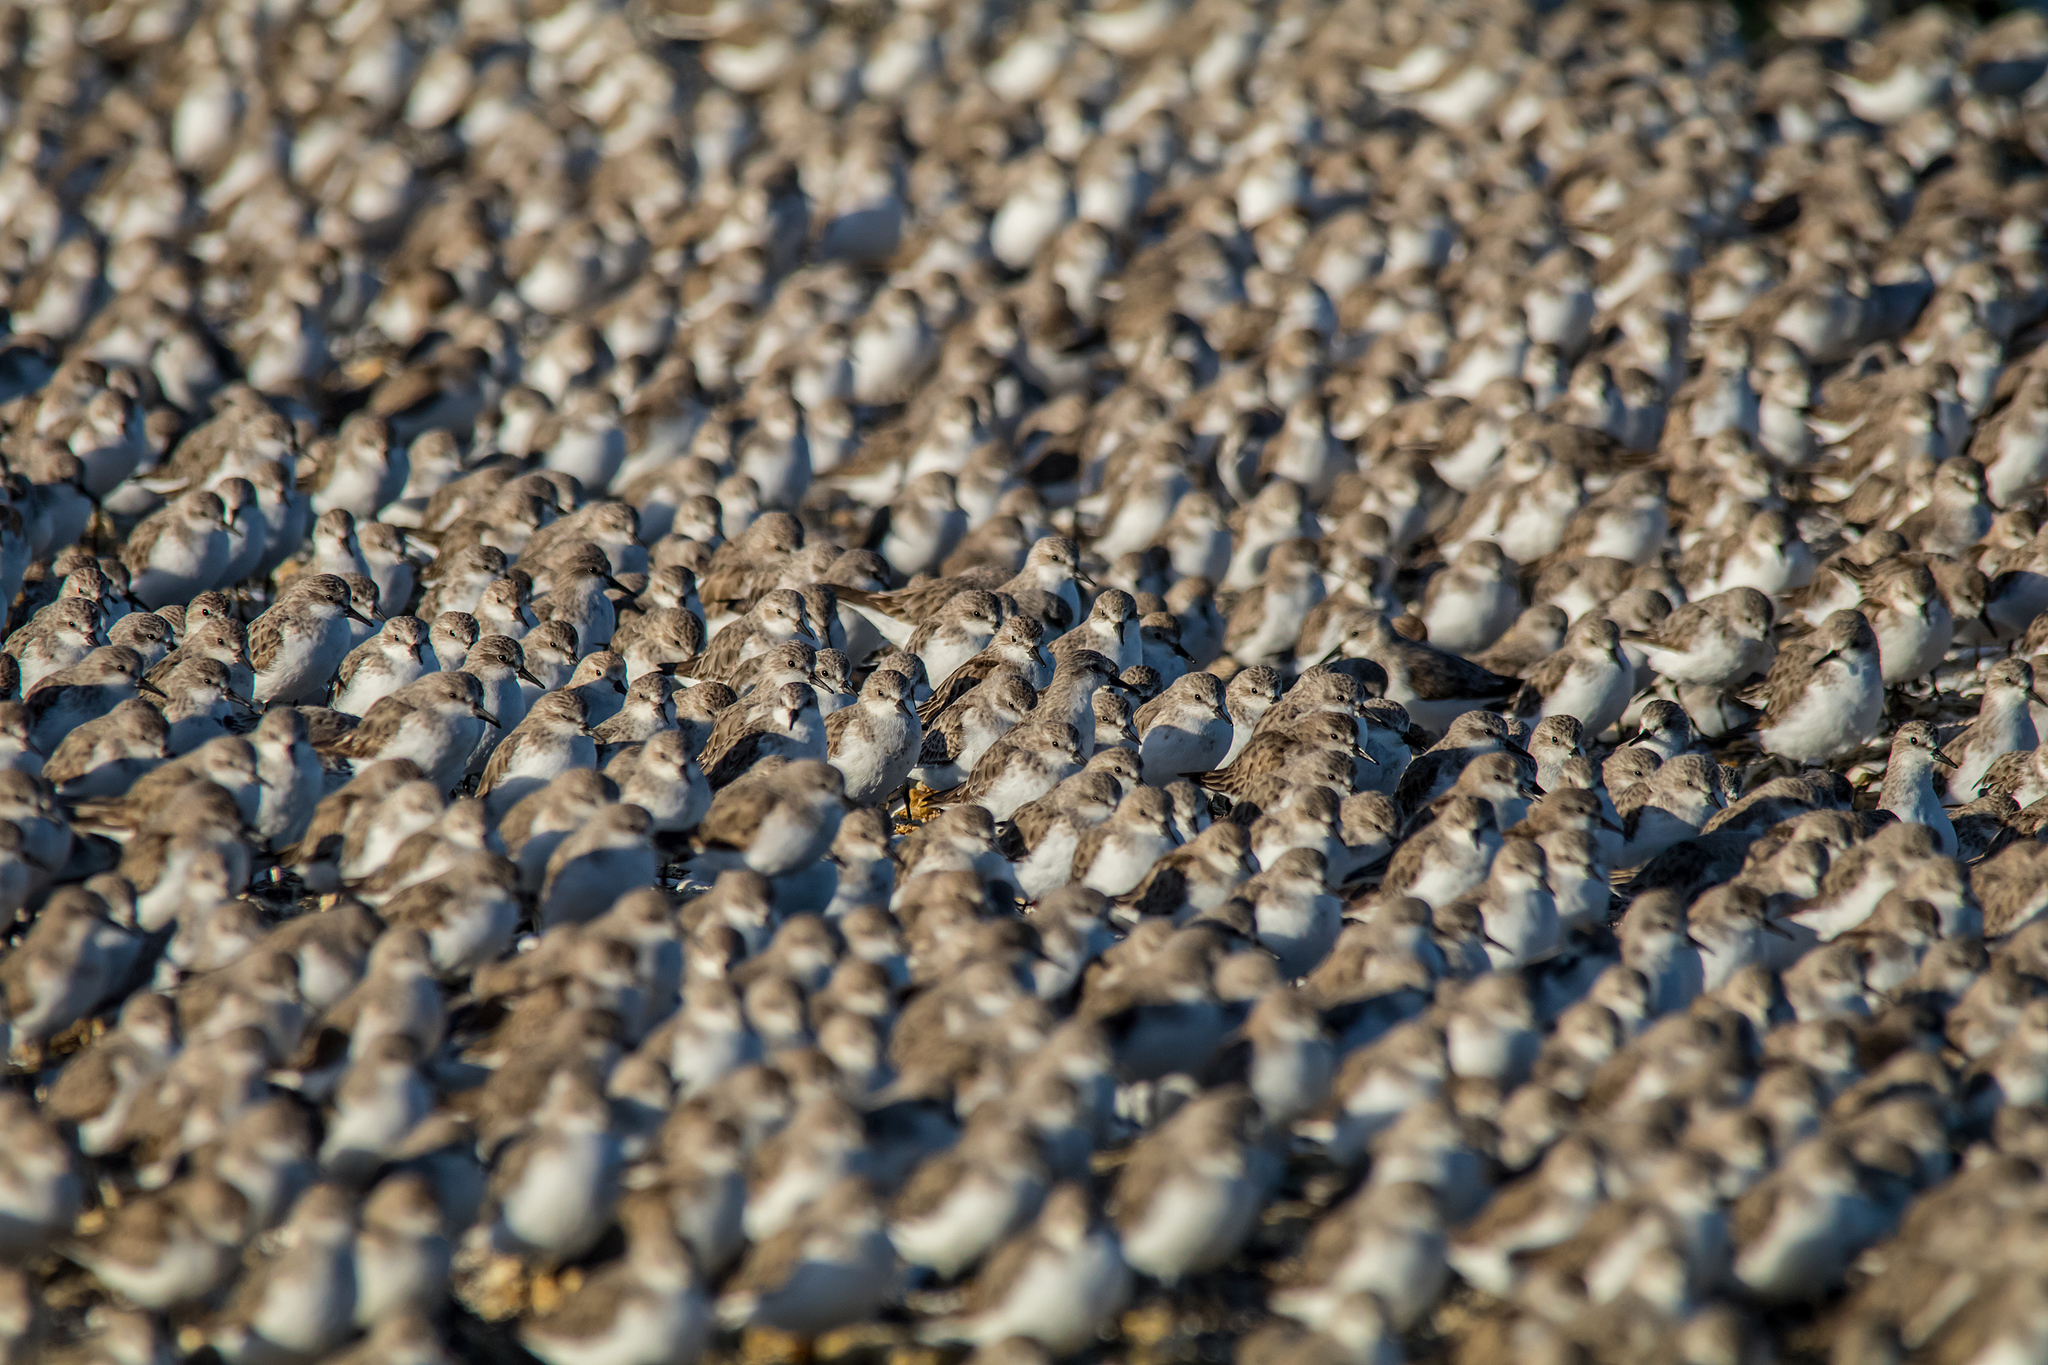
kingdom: Animalia
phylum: Chordata
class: Aves
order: Charadriiformes
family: Scolopacidae
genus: Calidris
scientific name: Calidris ruficollis
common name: Red-necked stint
